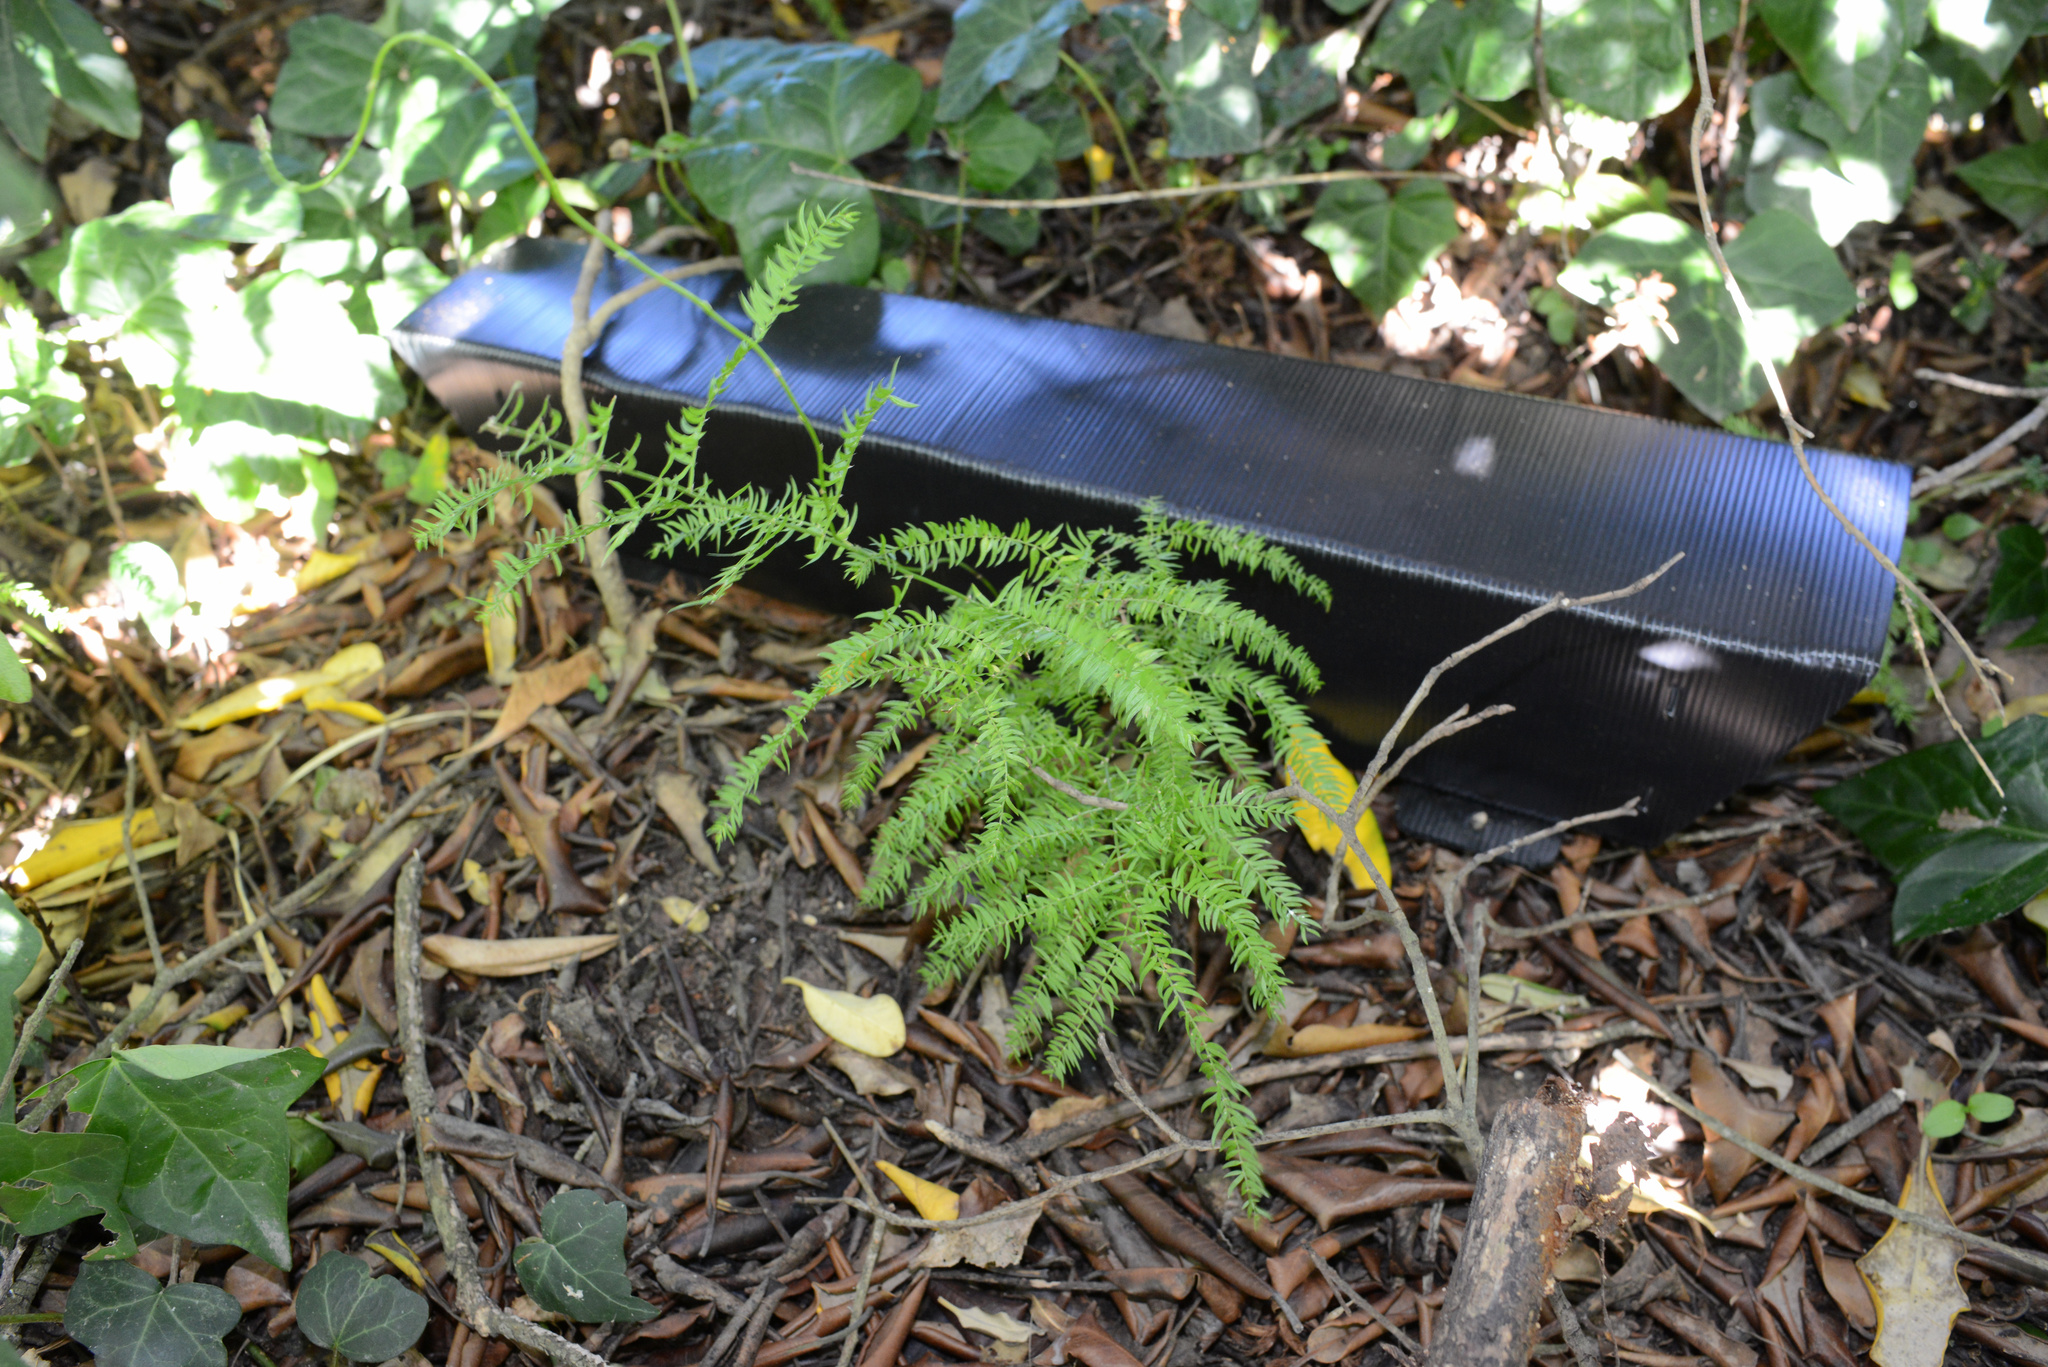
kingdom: Plantae
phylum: Tracheophyta
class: Liliopsida
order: Asparagales
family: Asparagaceae
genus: Asparagus
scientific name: Asparagus scandens
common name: Asparagus-fern
